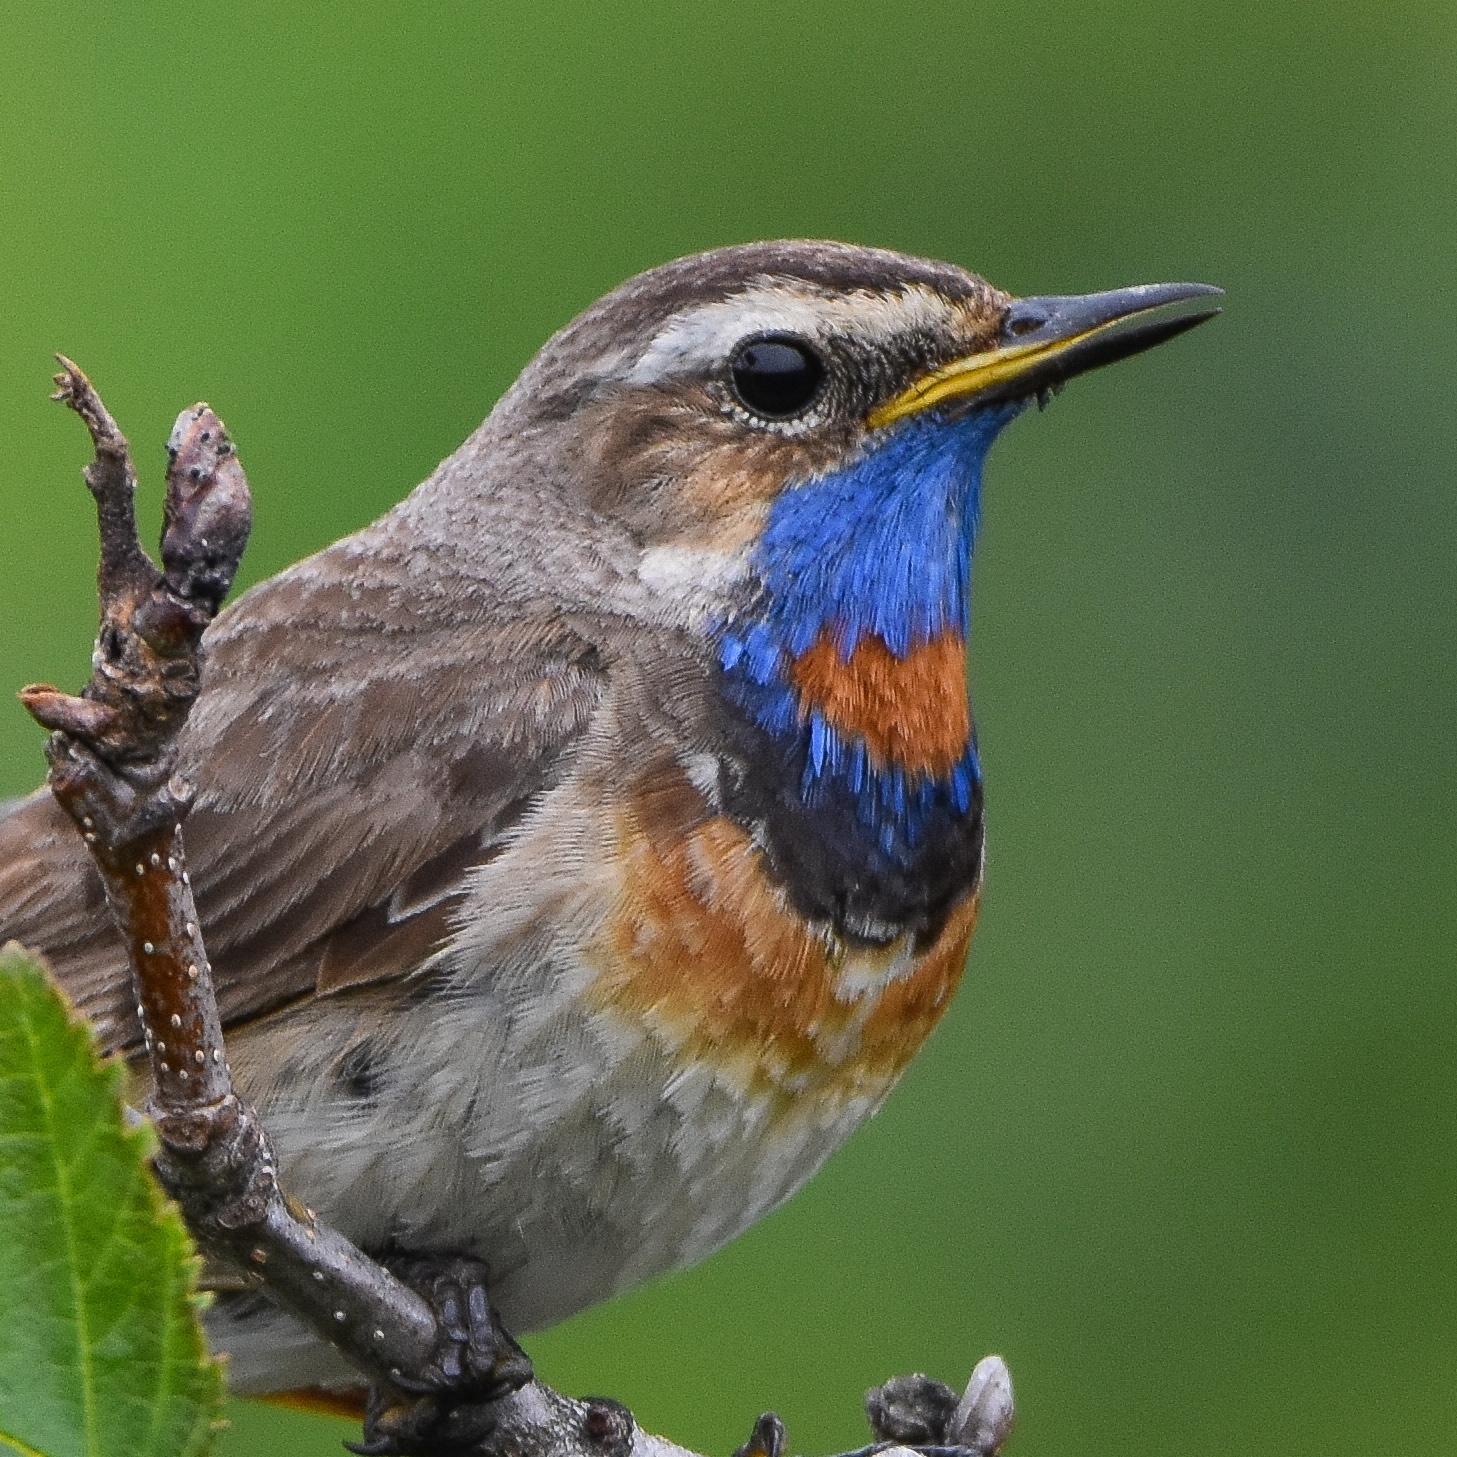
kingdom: Animalia
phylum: Chordata
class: Aves
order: Passeriformes
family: Muscicapidae
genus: Luscinia
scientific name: Luscinia svecica
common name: Bluethroat
